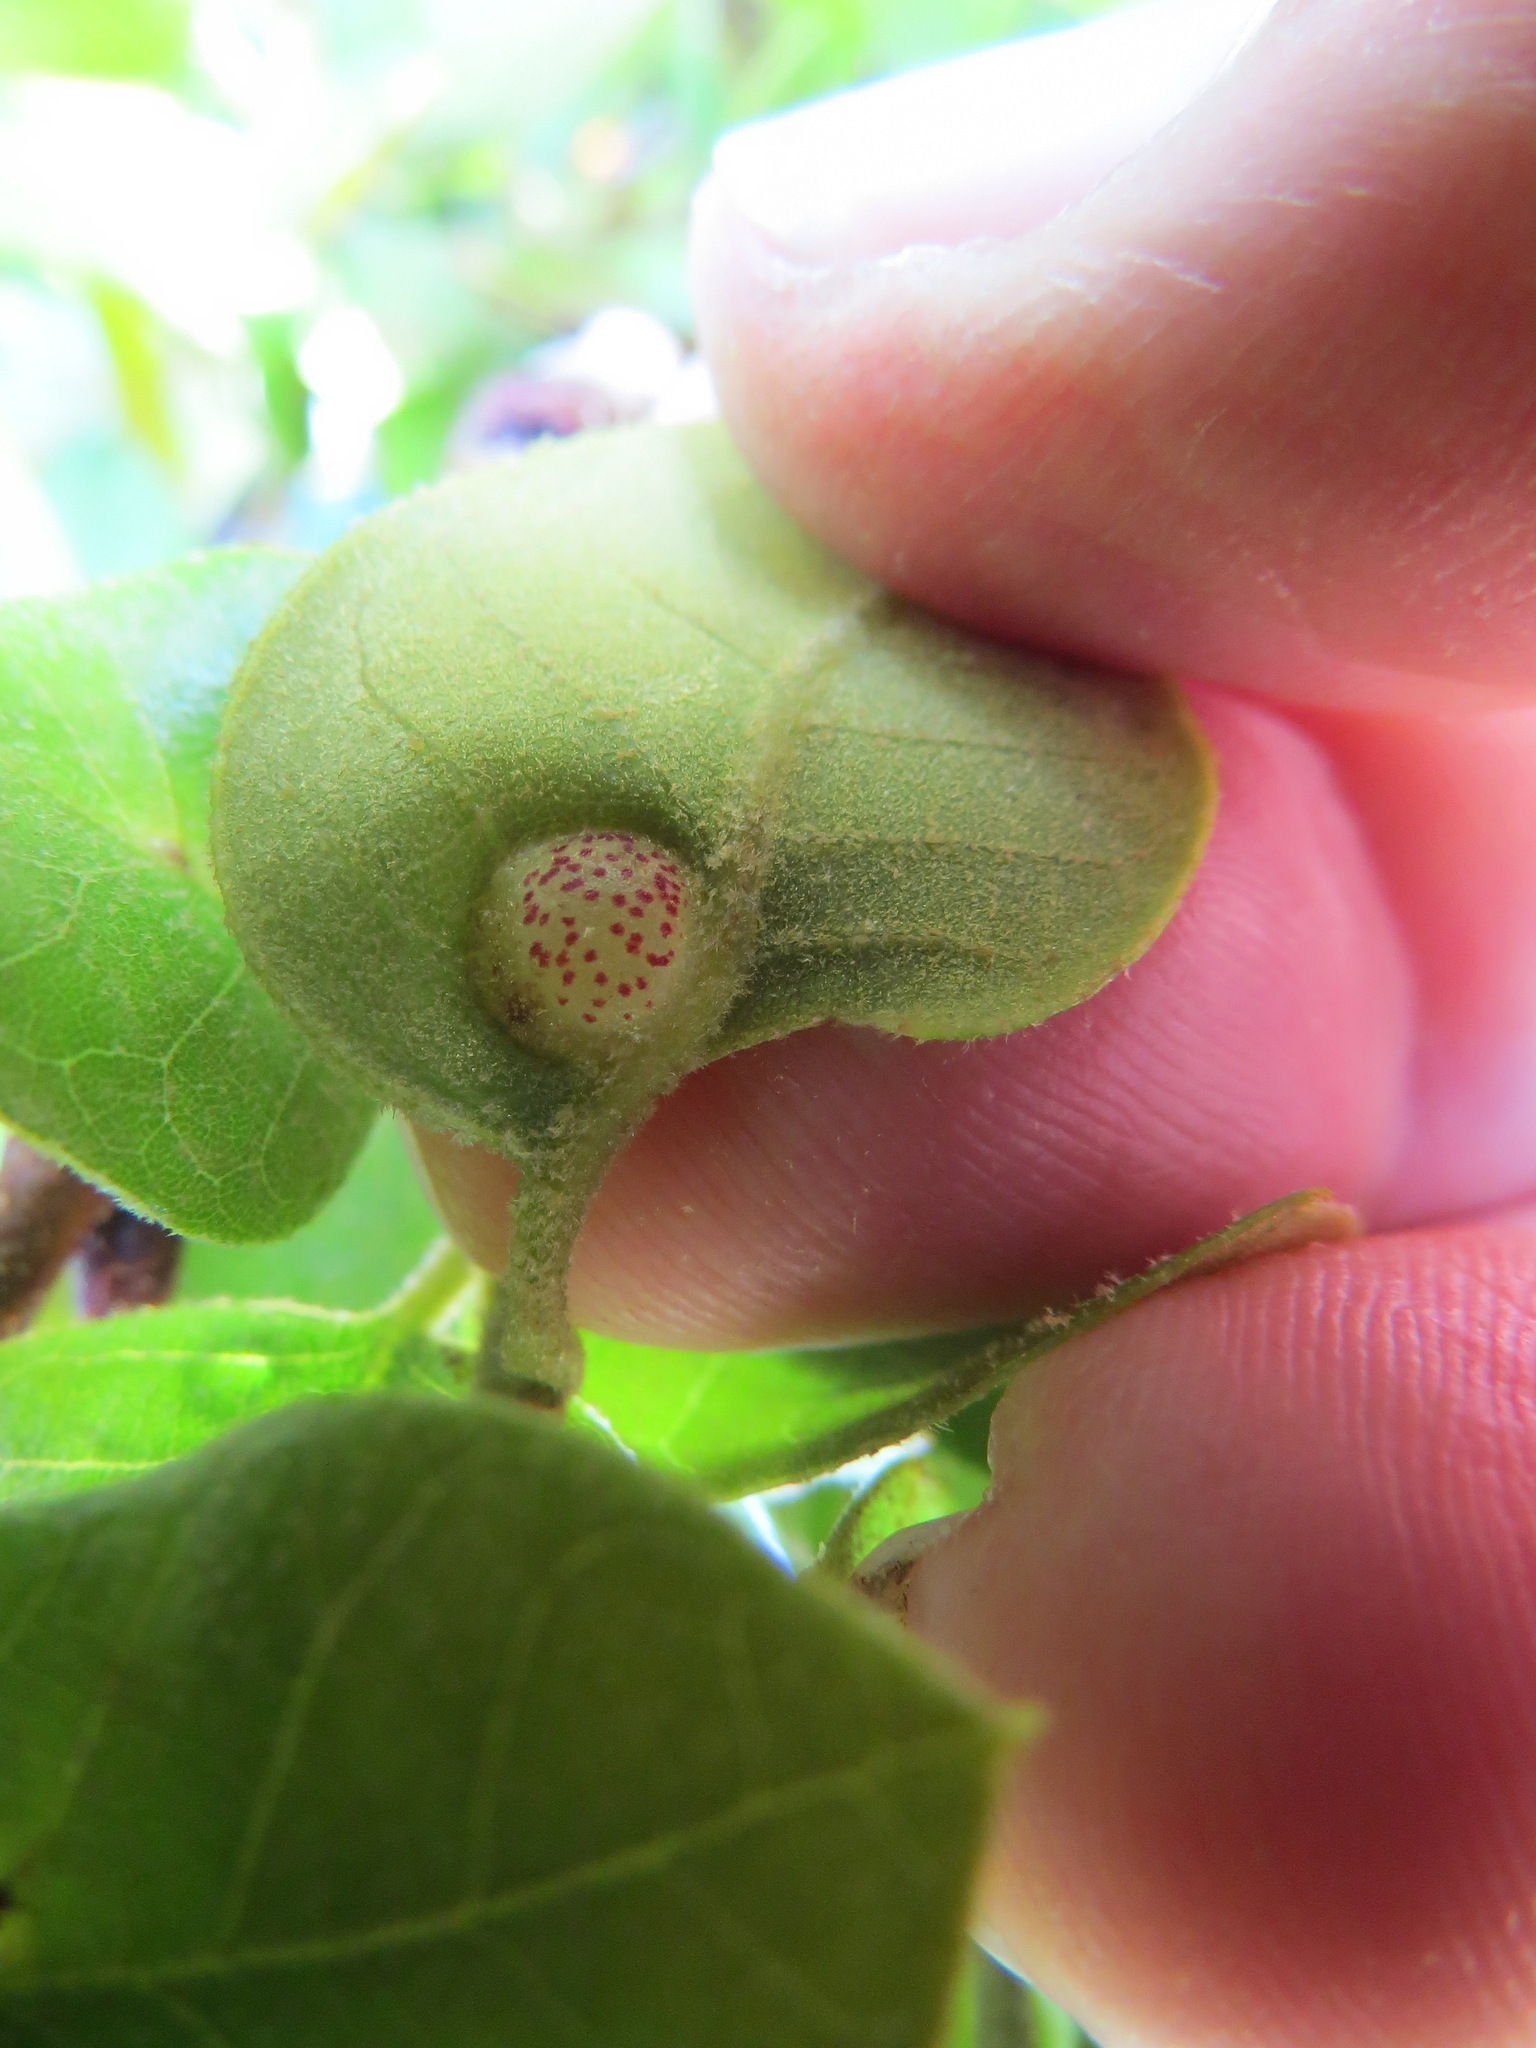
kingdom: Animalia
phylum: Arthropoda
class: Insecta
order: Hymenoptera
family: Cynipidae
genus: Heteroecus
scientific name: Heteroecus
